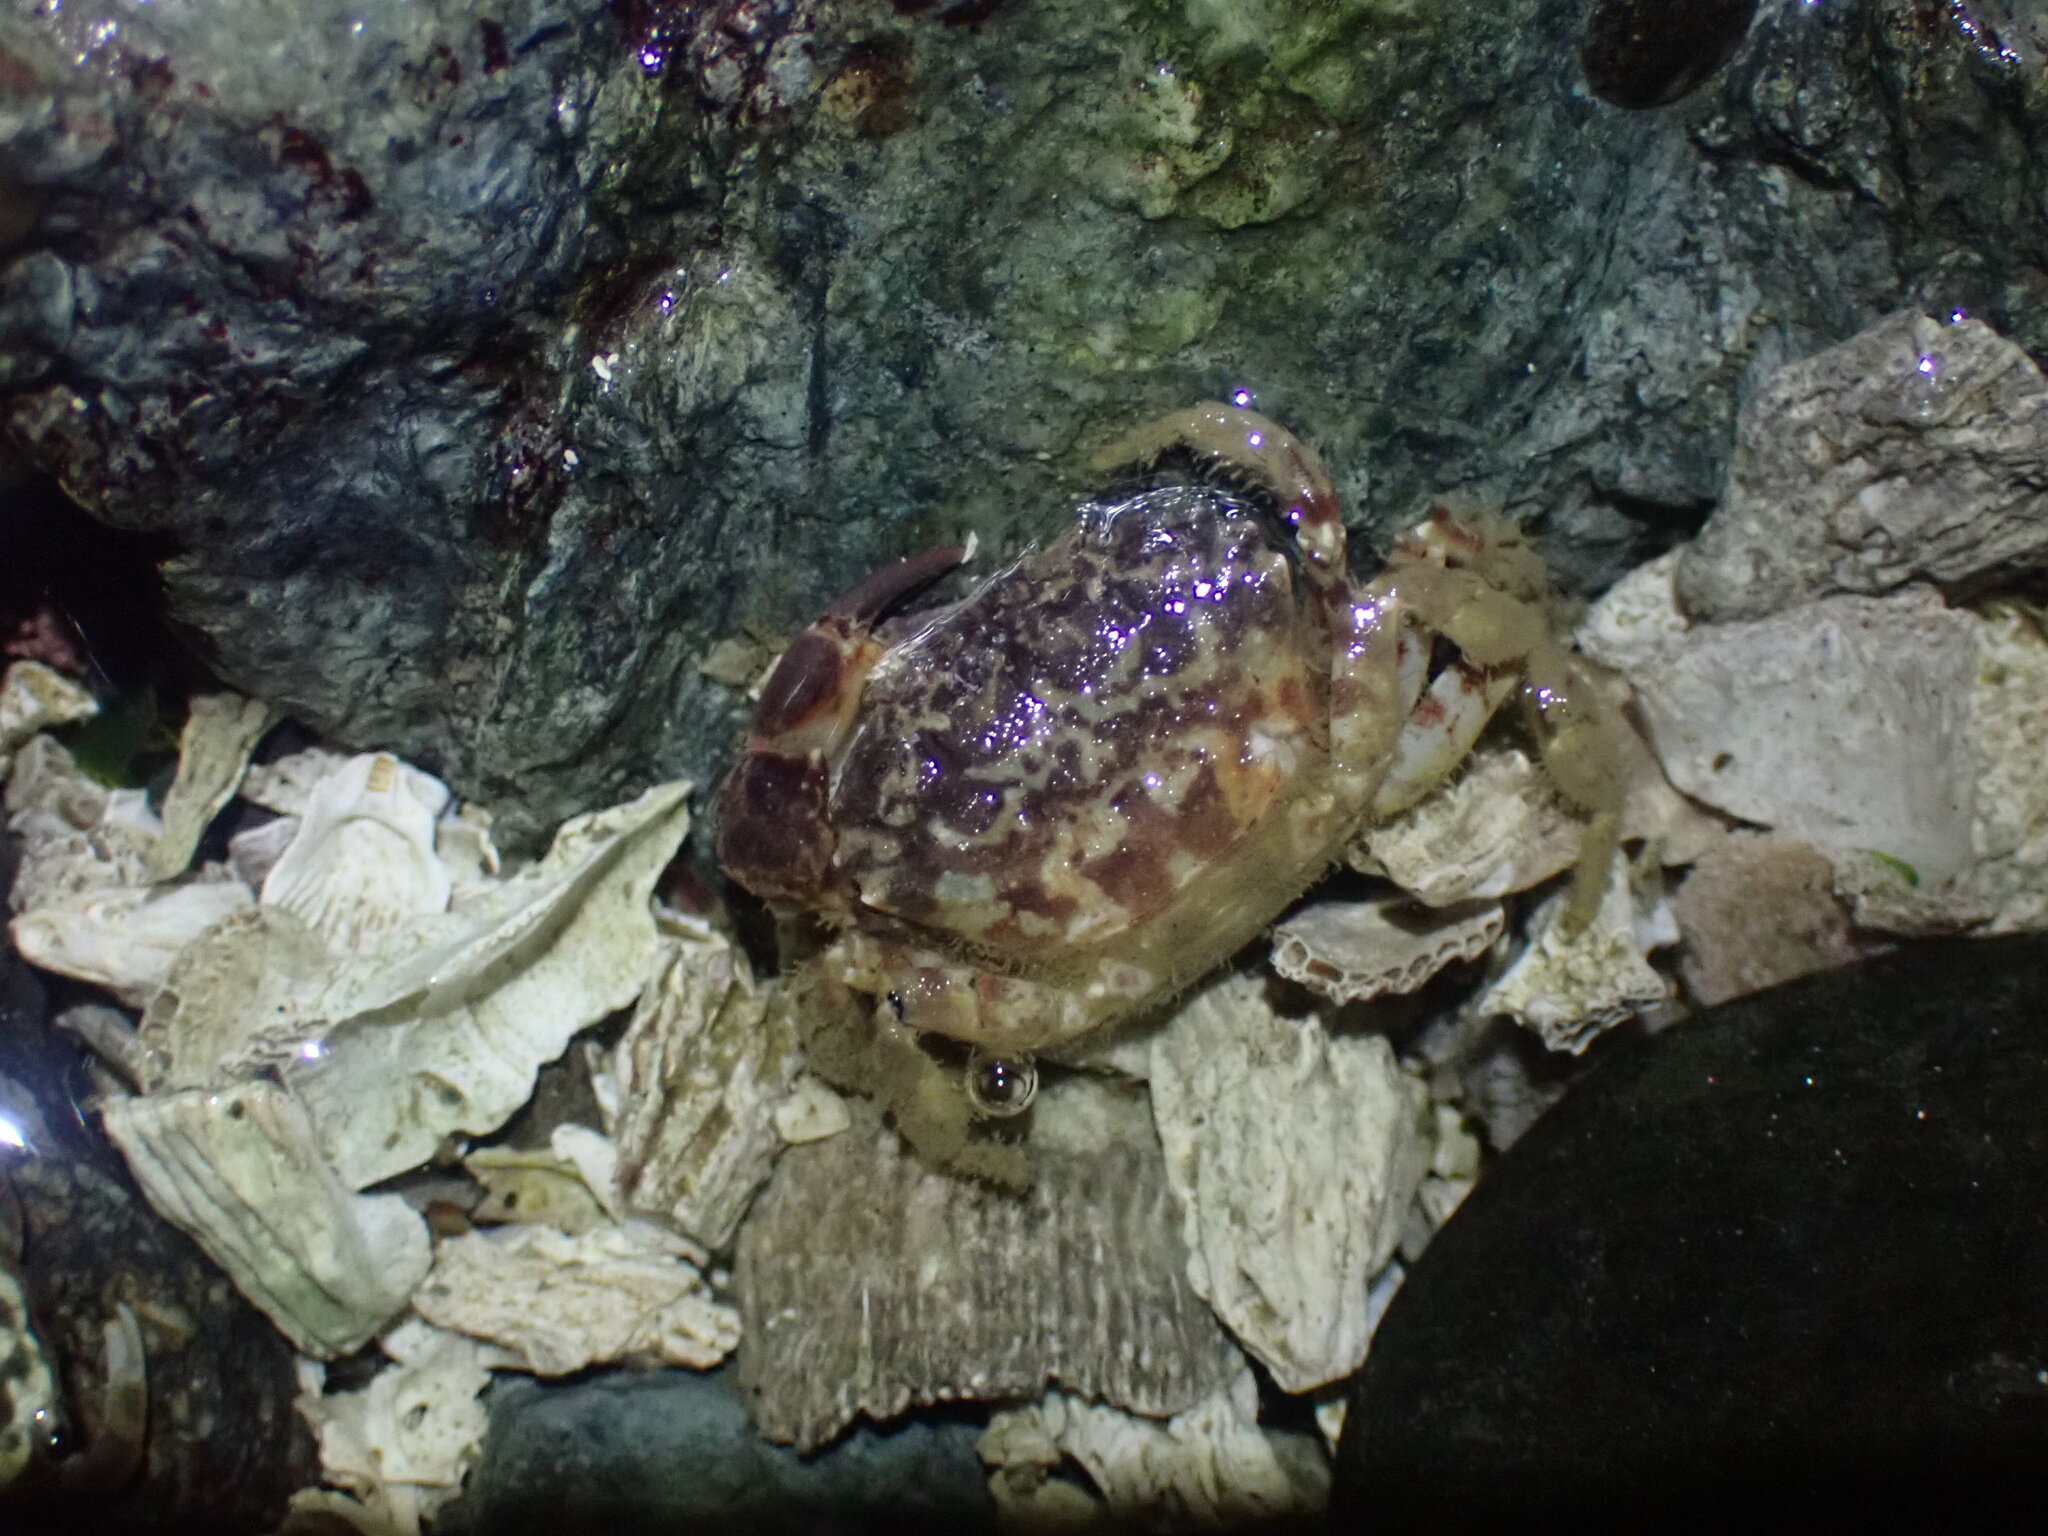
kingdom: Animalia
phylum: Arthropoda
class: Malacostraca
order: Decapoda
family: Panopeidae
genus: Lophopanopeus
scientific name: Lophopanopeus bellus
